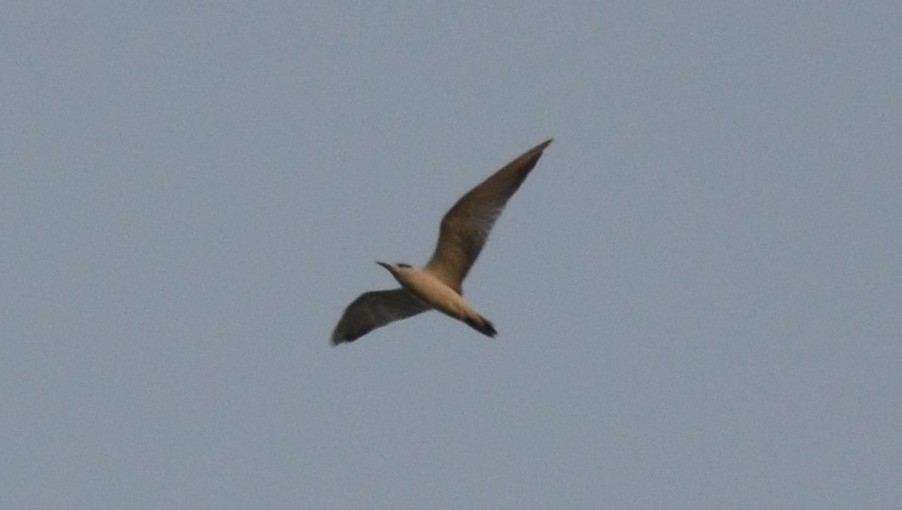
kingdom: Animalia
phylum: Chordata
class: Aves
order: Charadriiformes
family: Laridae
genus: Chlidonias
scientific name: Chlidonias hybrida
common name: Whiskered tern
